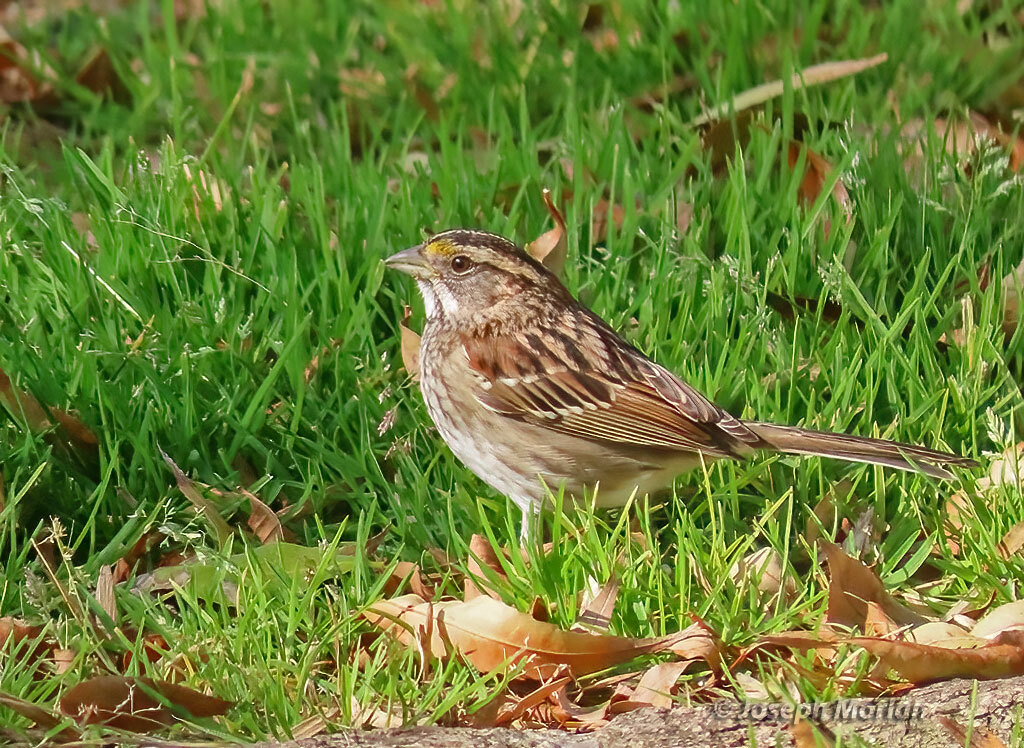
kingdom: Animalia
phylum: Chordata
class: Aves
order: Passeriformes
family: Passerellidae
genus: Zonotrichia
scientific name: Zonotrichia albicollis
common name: White-throated sparrow
